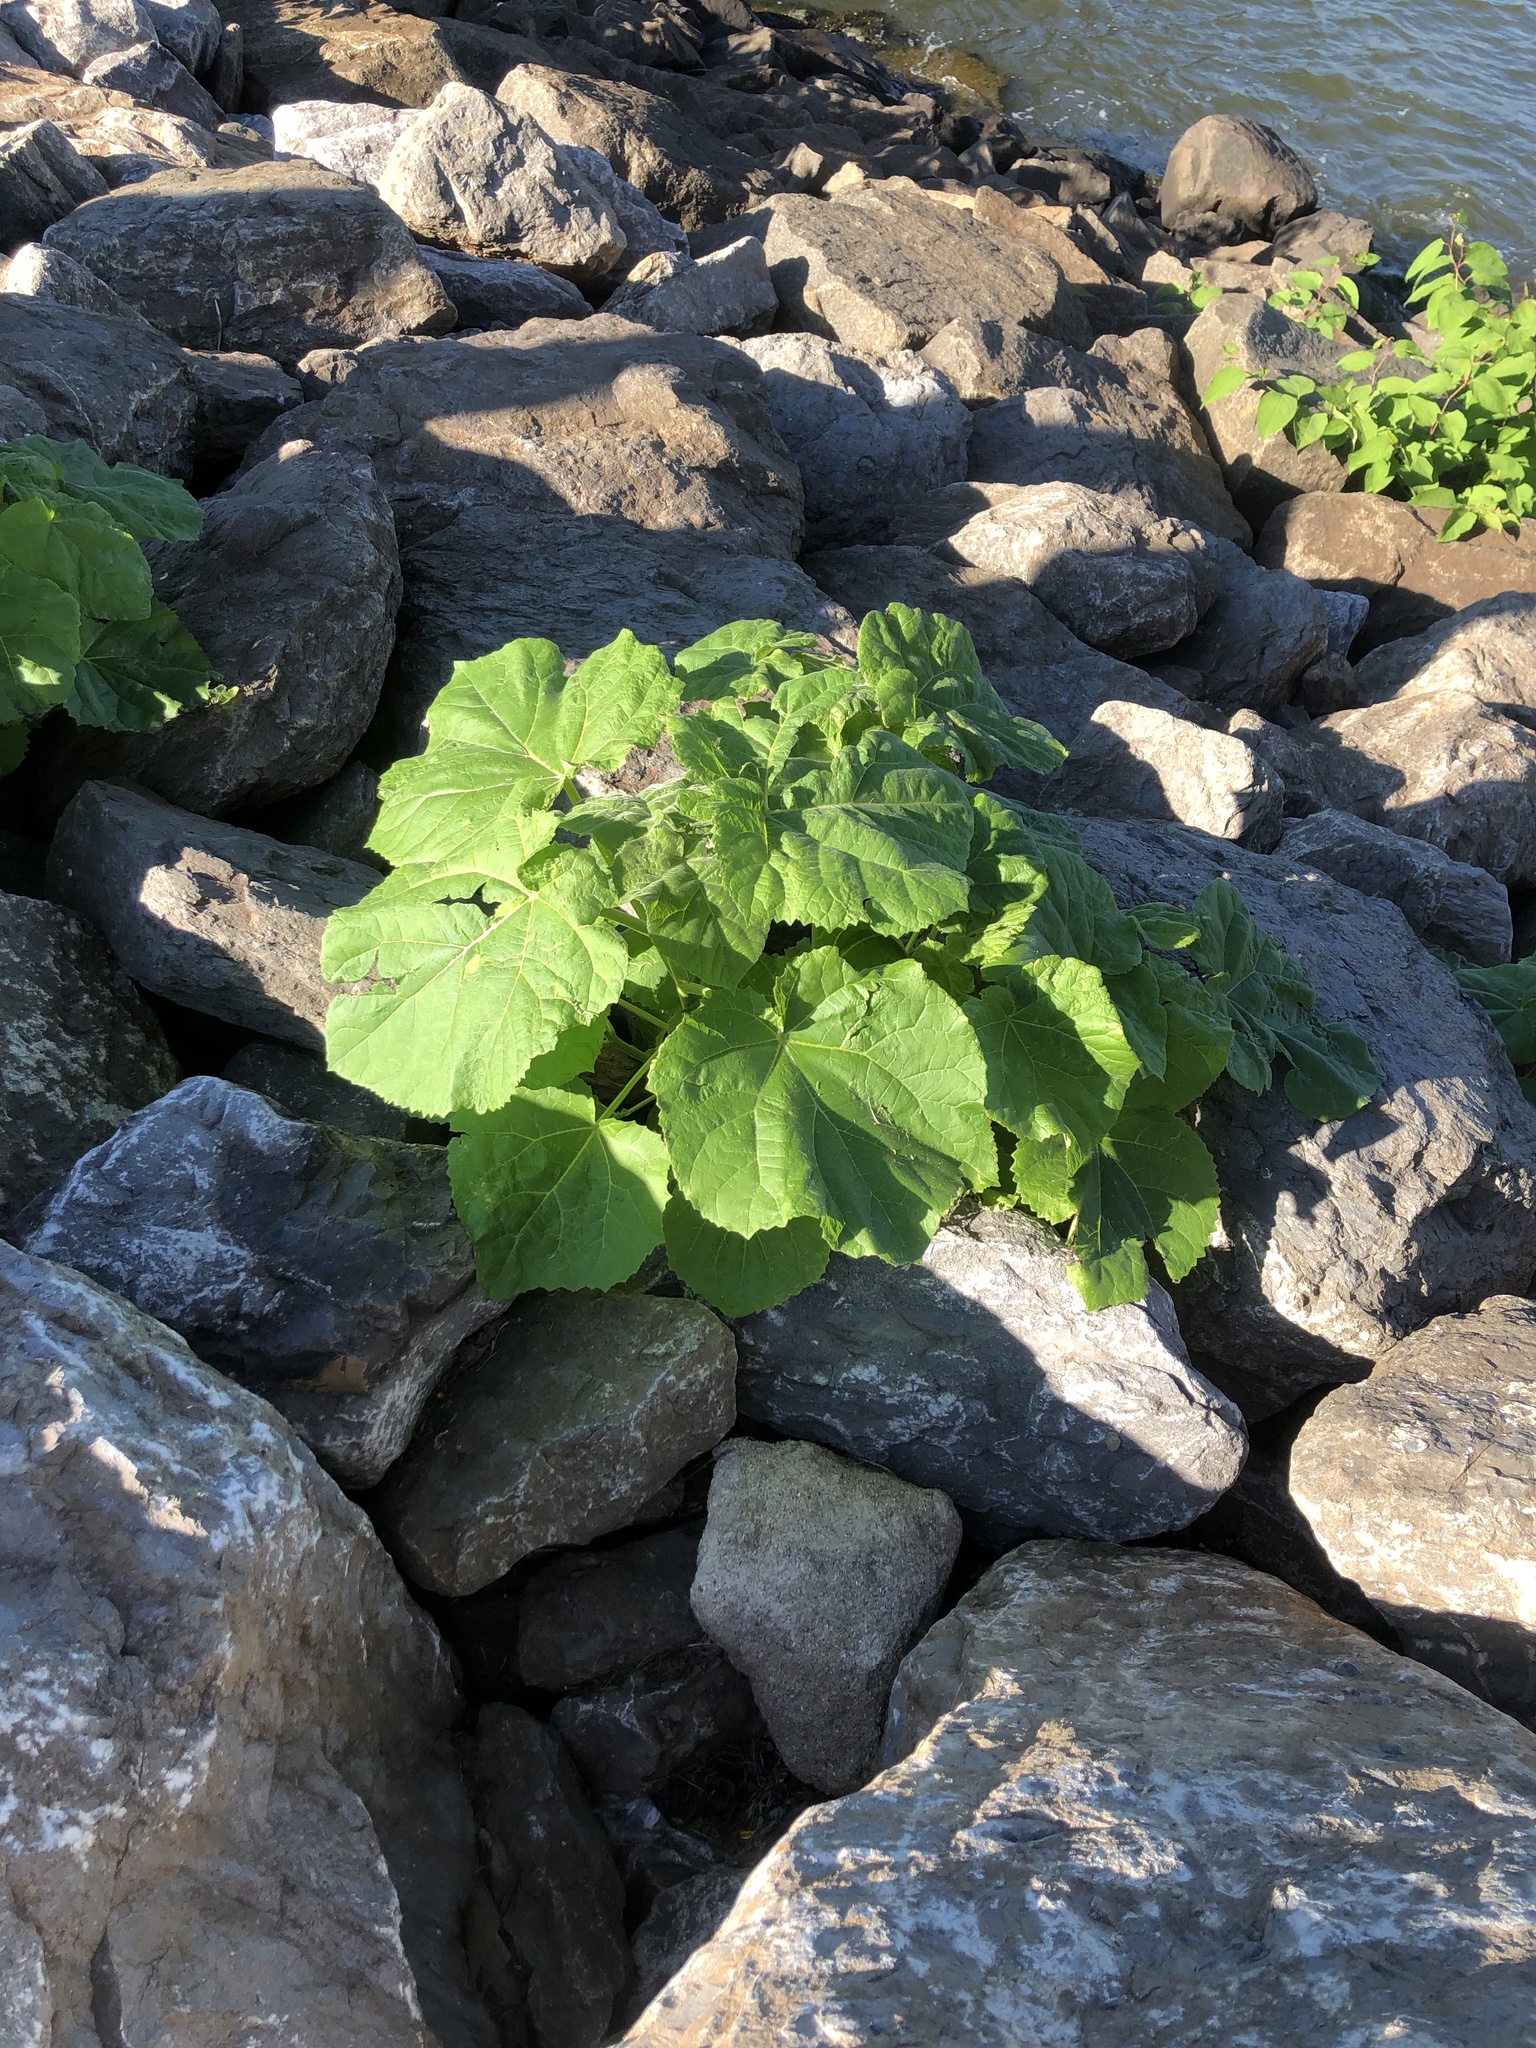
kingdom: Plantae
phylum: Tracheophyta
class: Magnoliopsida
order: Lamiales
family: Paulowniaceae
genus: Paulownia
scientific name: Paulownia tomentosa
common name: Foxglove-tree
